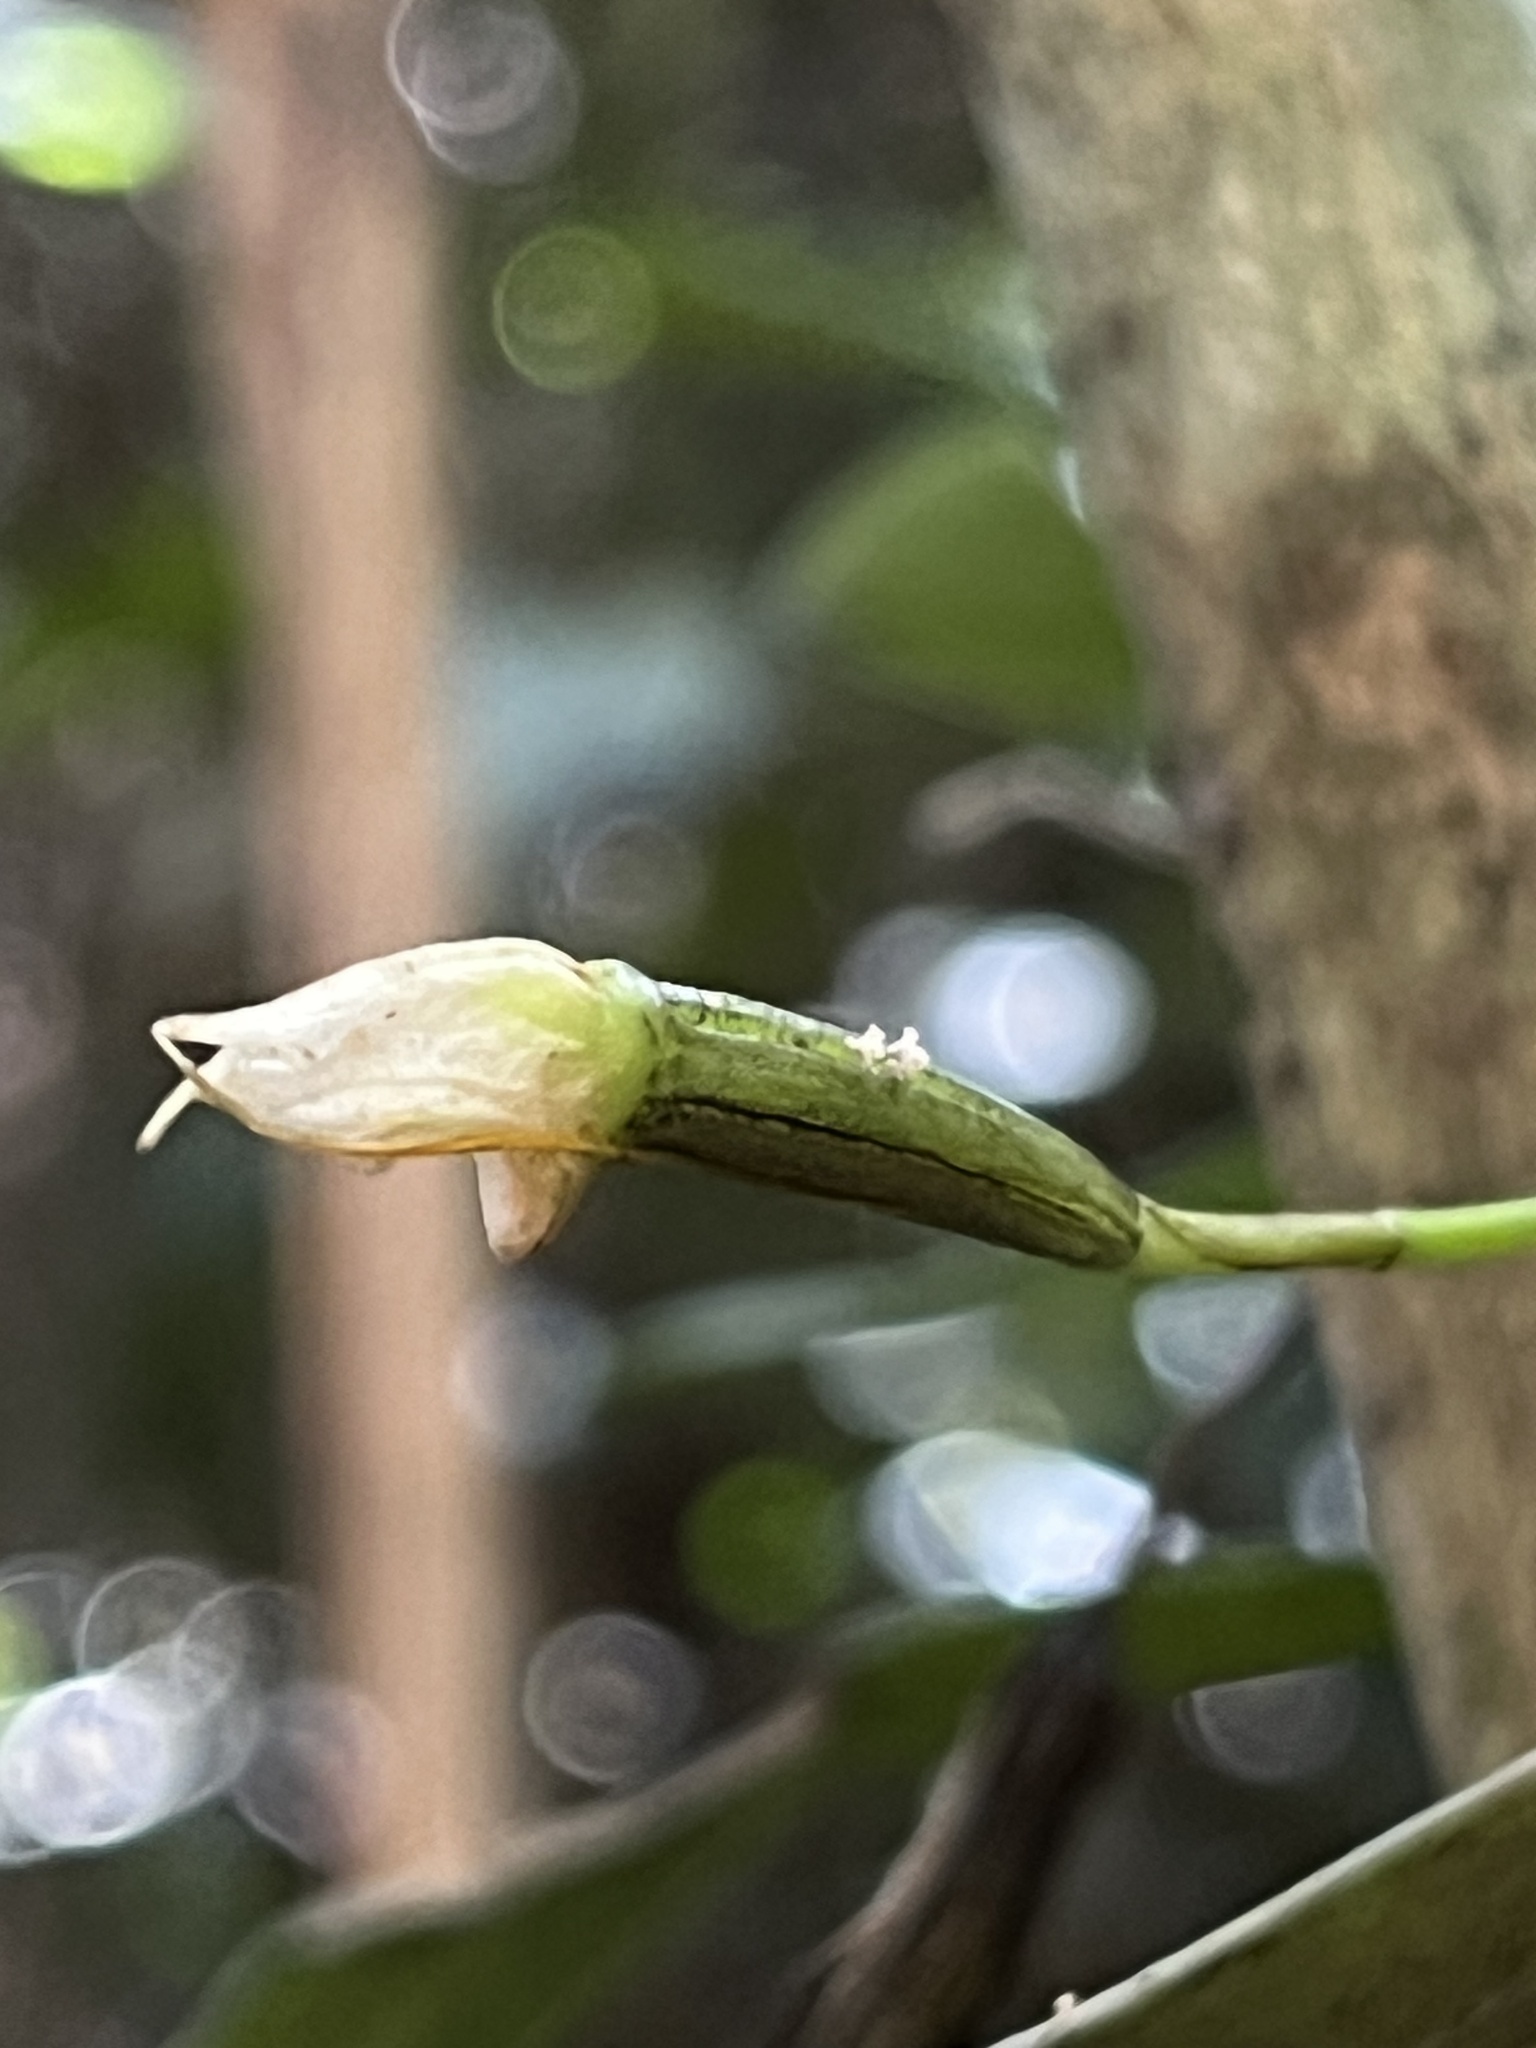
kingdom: Plantae
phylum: Tracheophyta
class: Liliopsida
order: Asparagales
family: Orchidaceae
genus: Masdevallia
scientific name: Masdevallia strumifera
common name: Goiter carrying masdevallia
